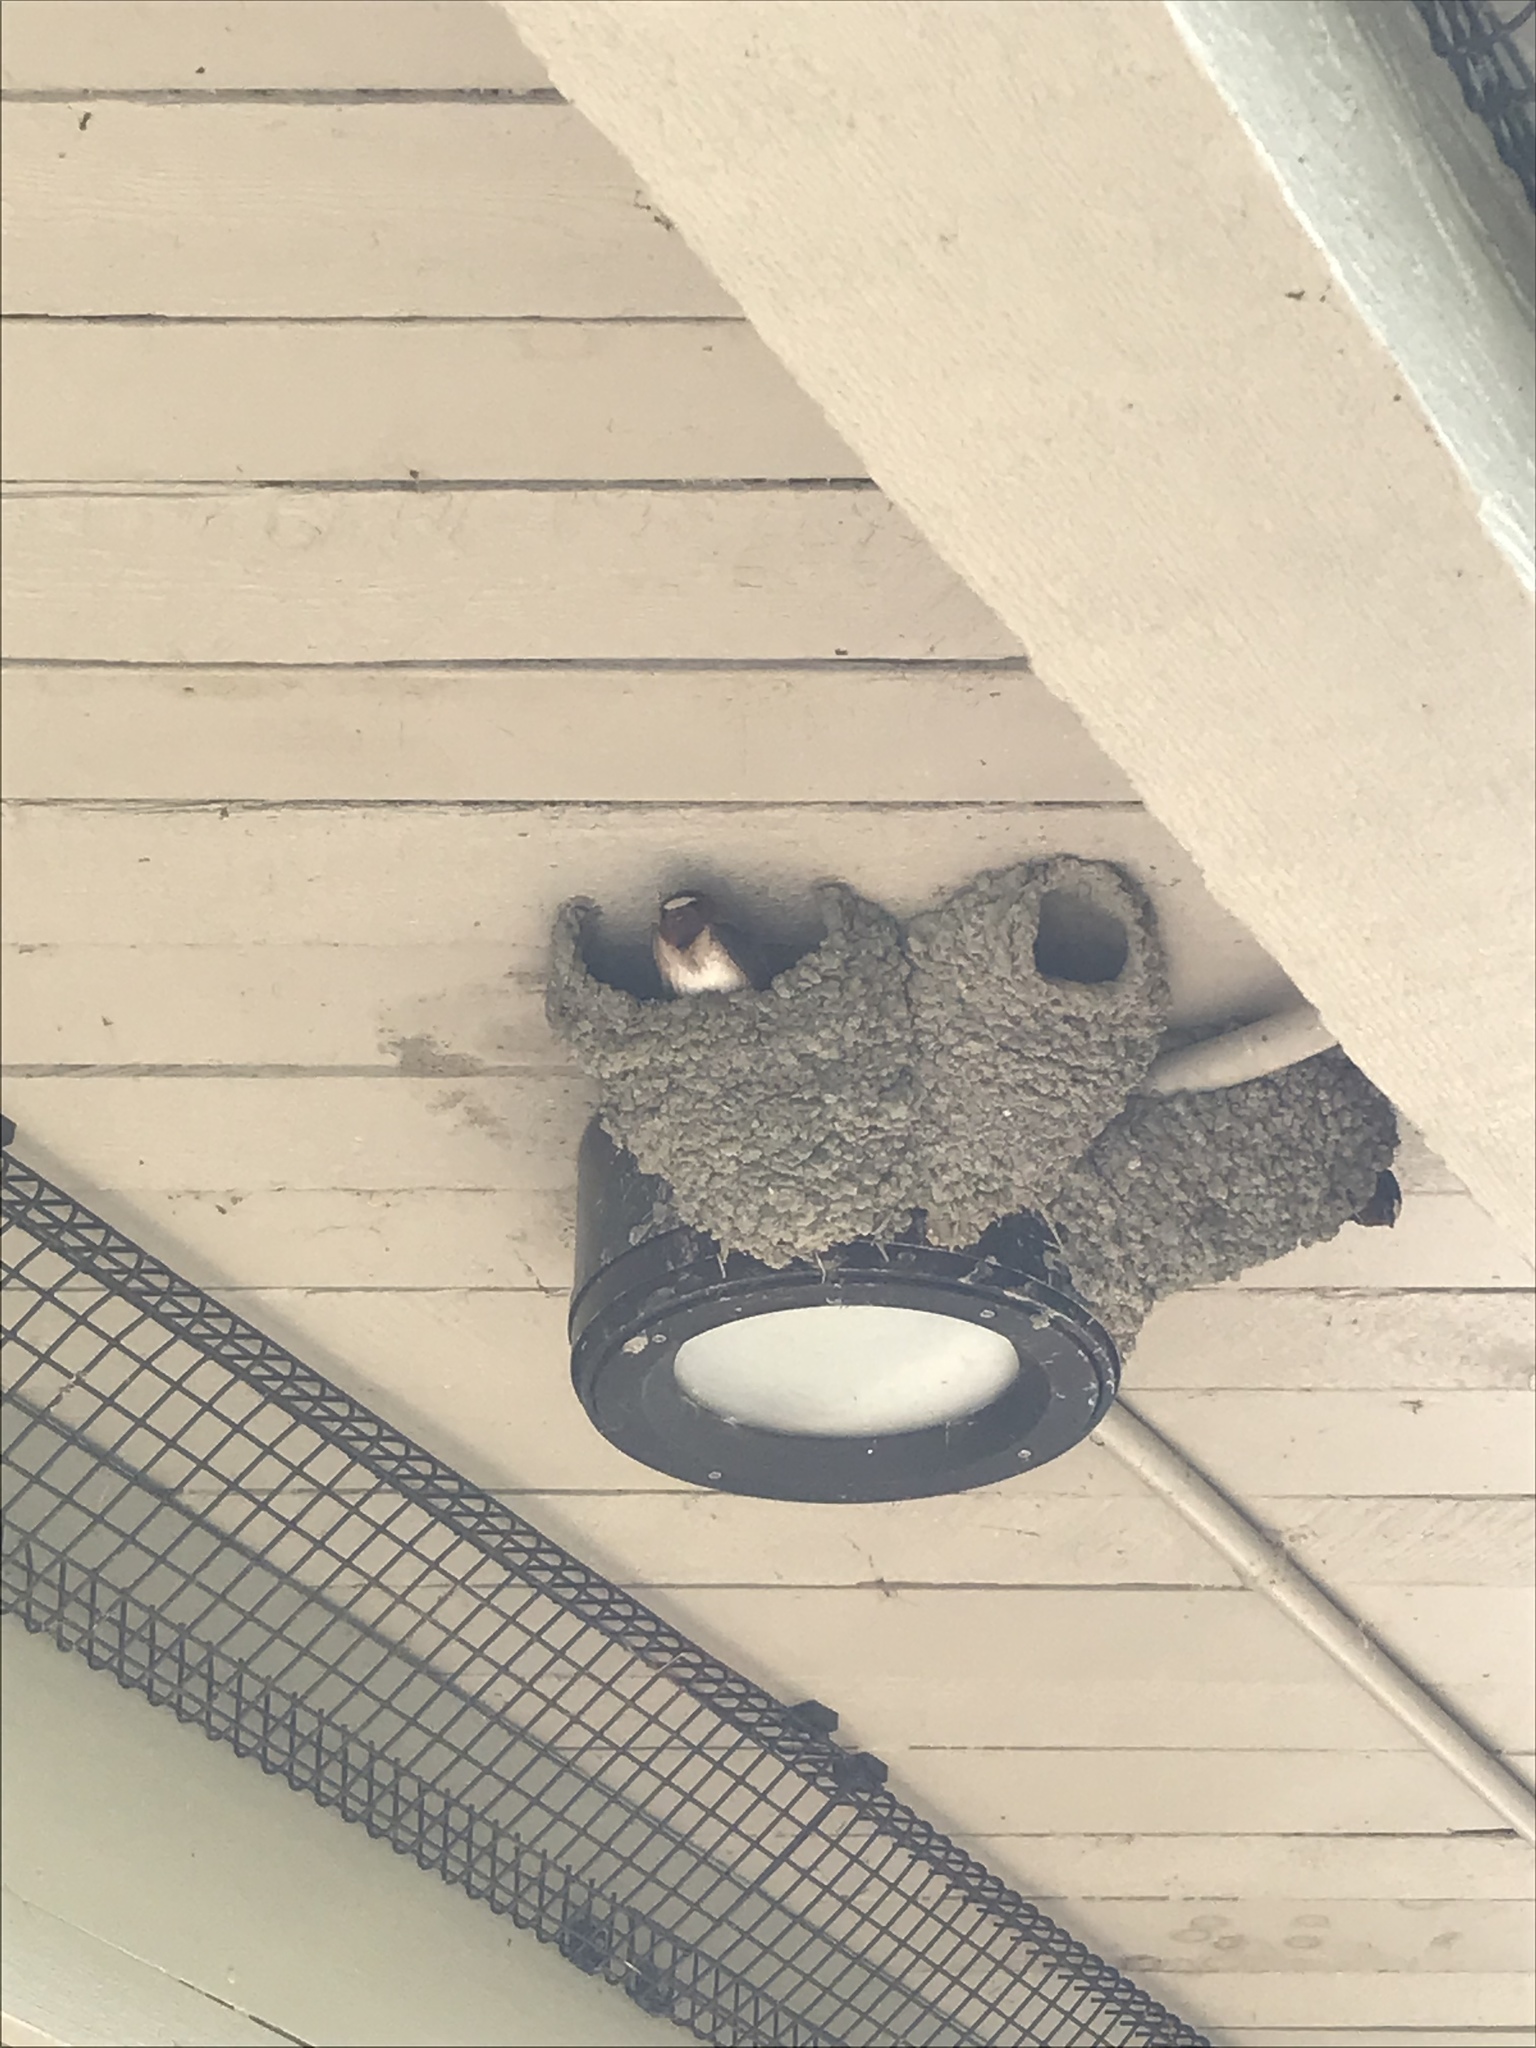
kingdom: Animalia
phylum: Chordata
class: Aves
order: Passeriformes
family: Hirundinidae
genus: Petrochelidon
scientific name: Petrochelidon pyrrhonota
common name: American cliff swallow
